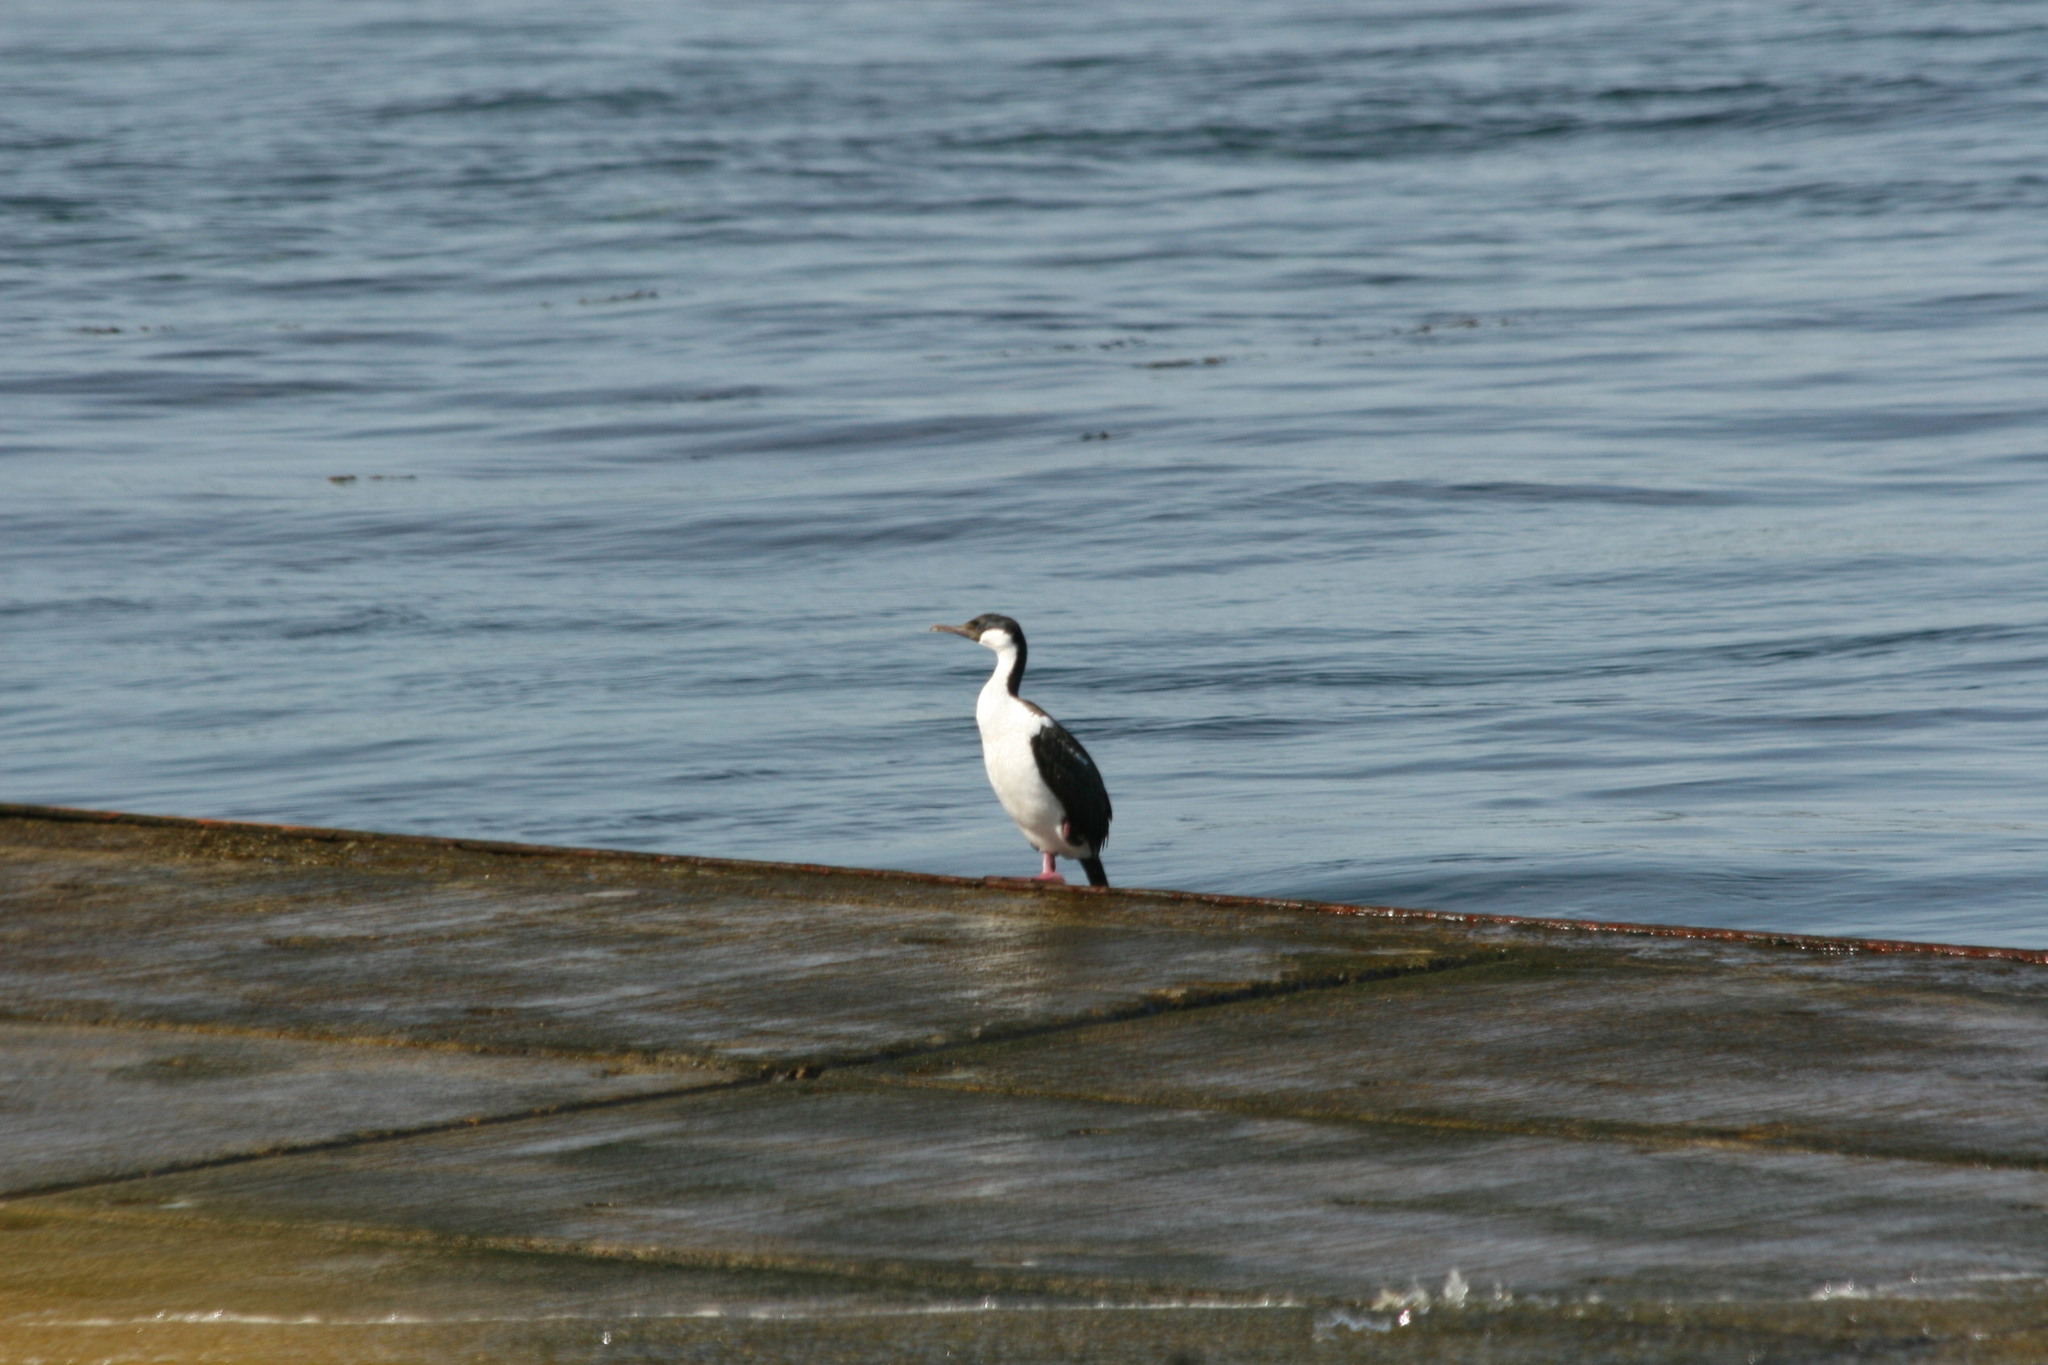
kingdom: Animalia
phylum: Chordata
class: Aves
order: Suliformes
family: Phalacrocoracidae
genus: Leucocarbo
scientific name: Leucocarbo atriceps
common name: Imperial shag
